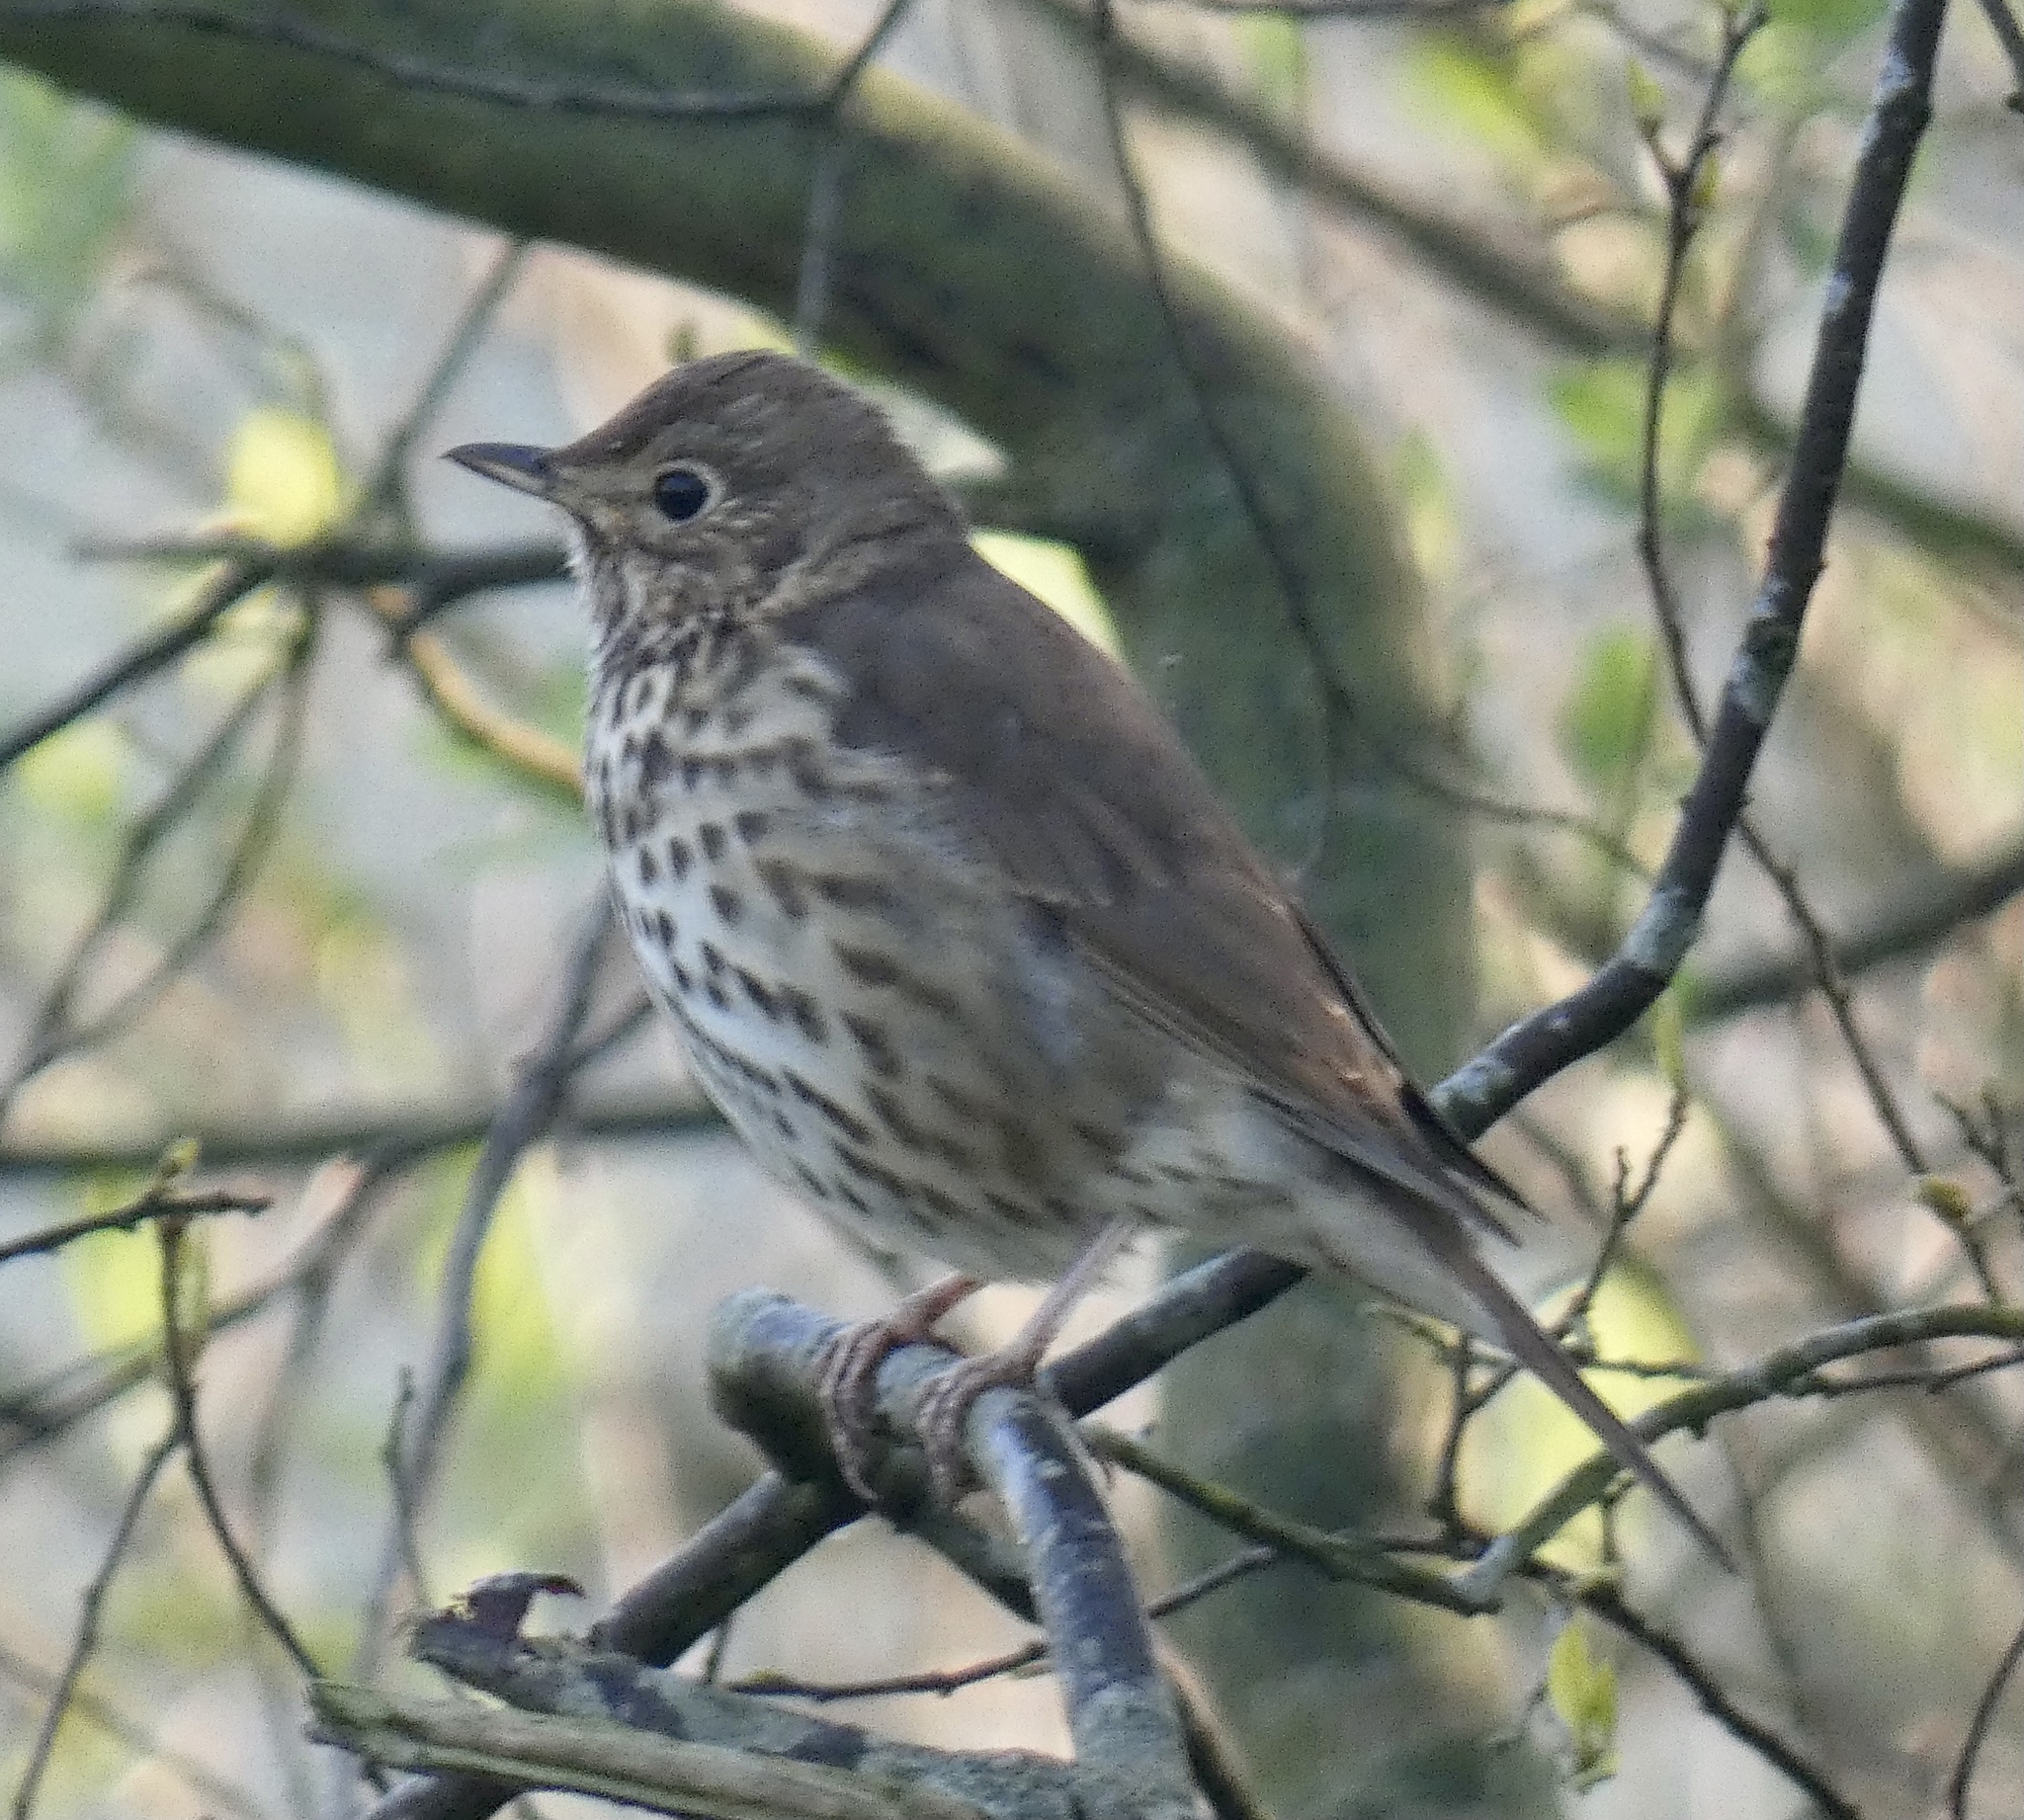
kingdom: Animalia
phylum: Chordata
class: Aves
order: Passeriformes
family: Turdidae
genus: Turdus
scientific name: Turdus philomelos
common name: Song thrush
